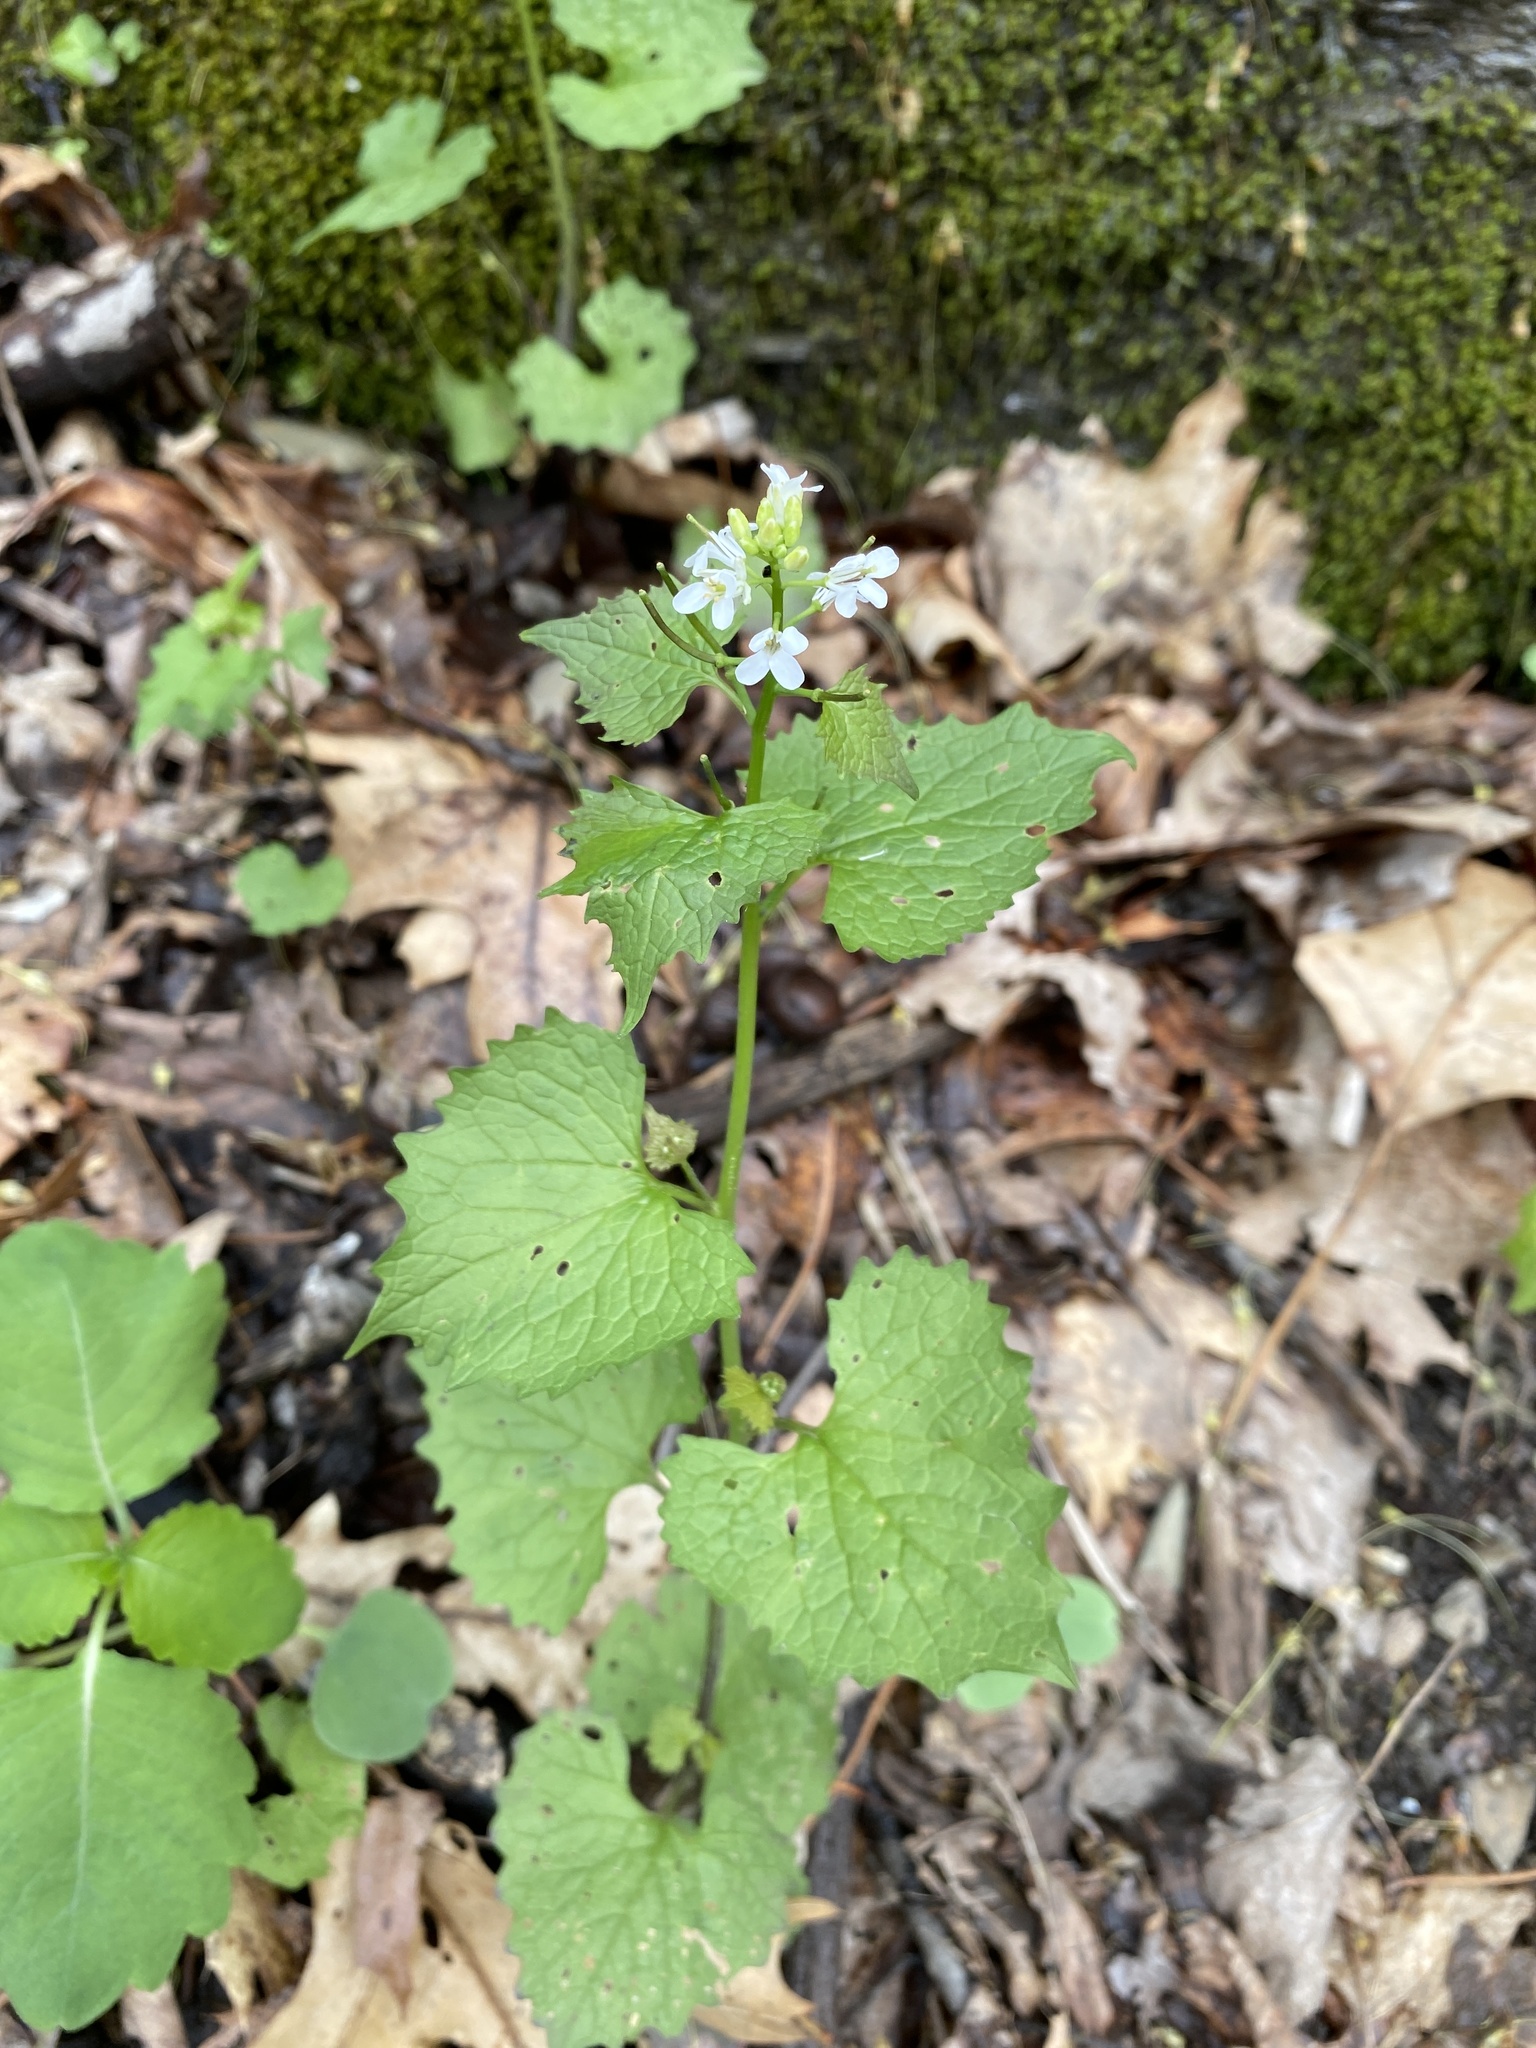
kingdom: Plantae
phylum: Tracheophyta
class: Magnoliopsida
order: Brassicales
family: Brassicaceae
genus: Alliaria
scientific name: Alliaria petiolata
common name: Garlic mustard
